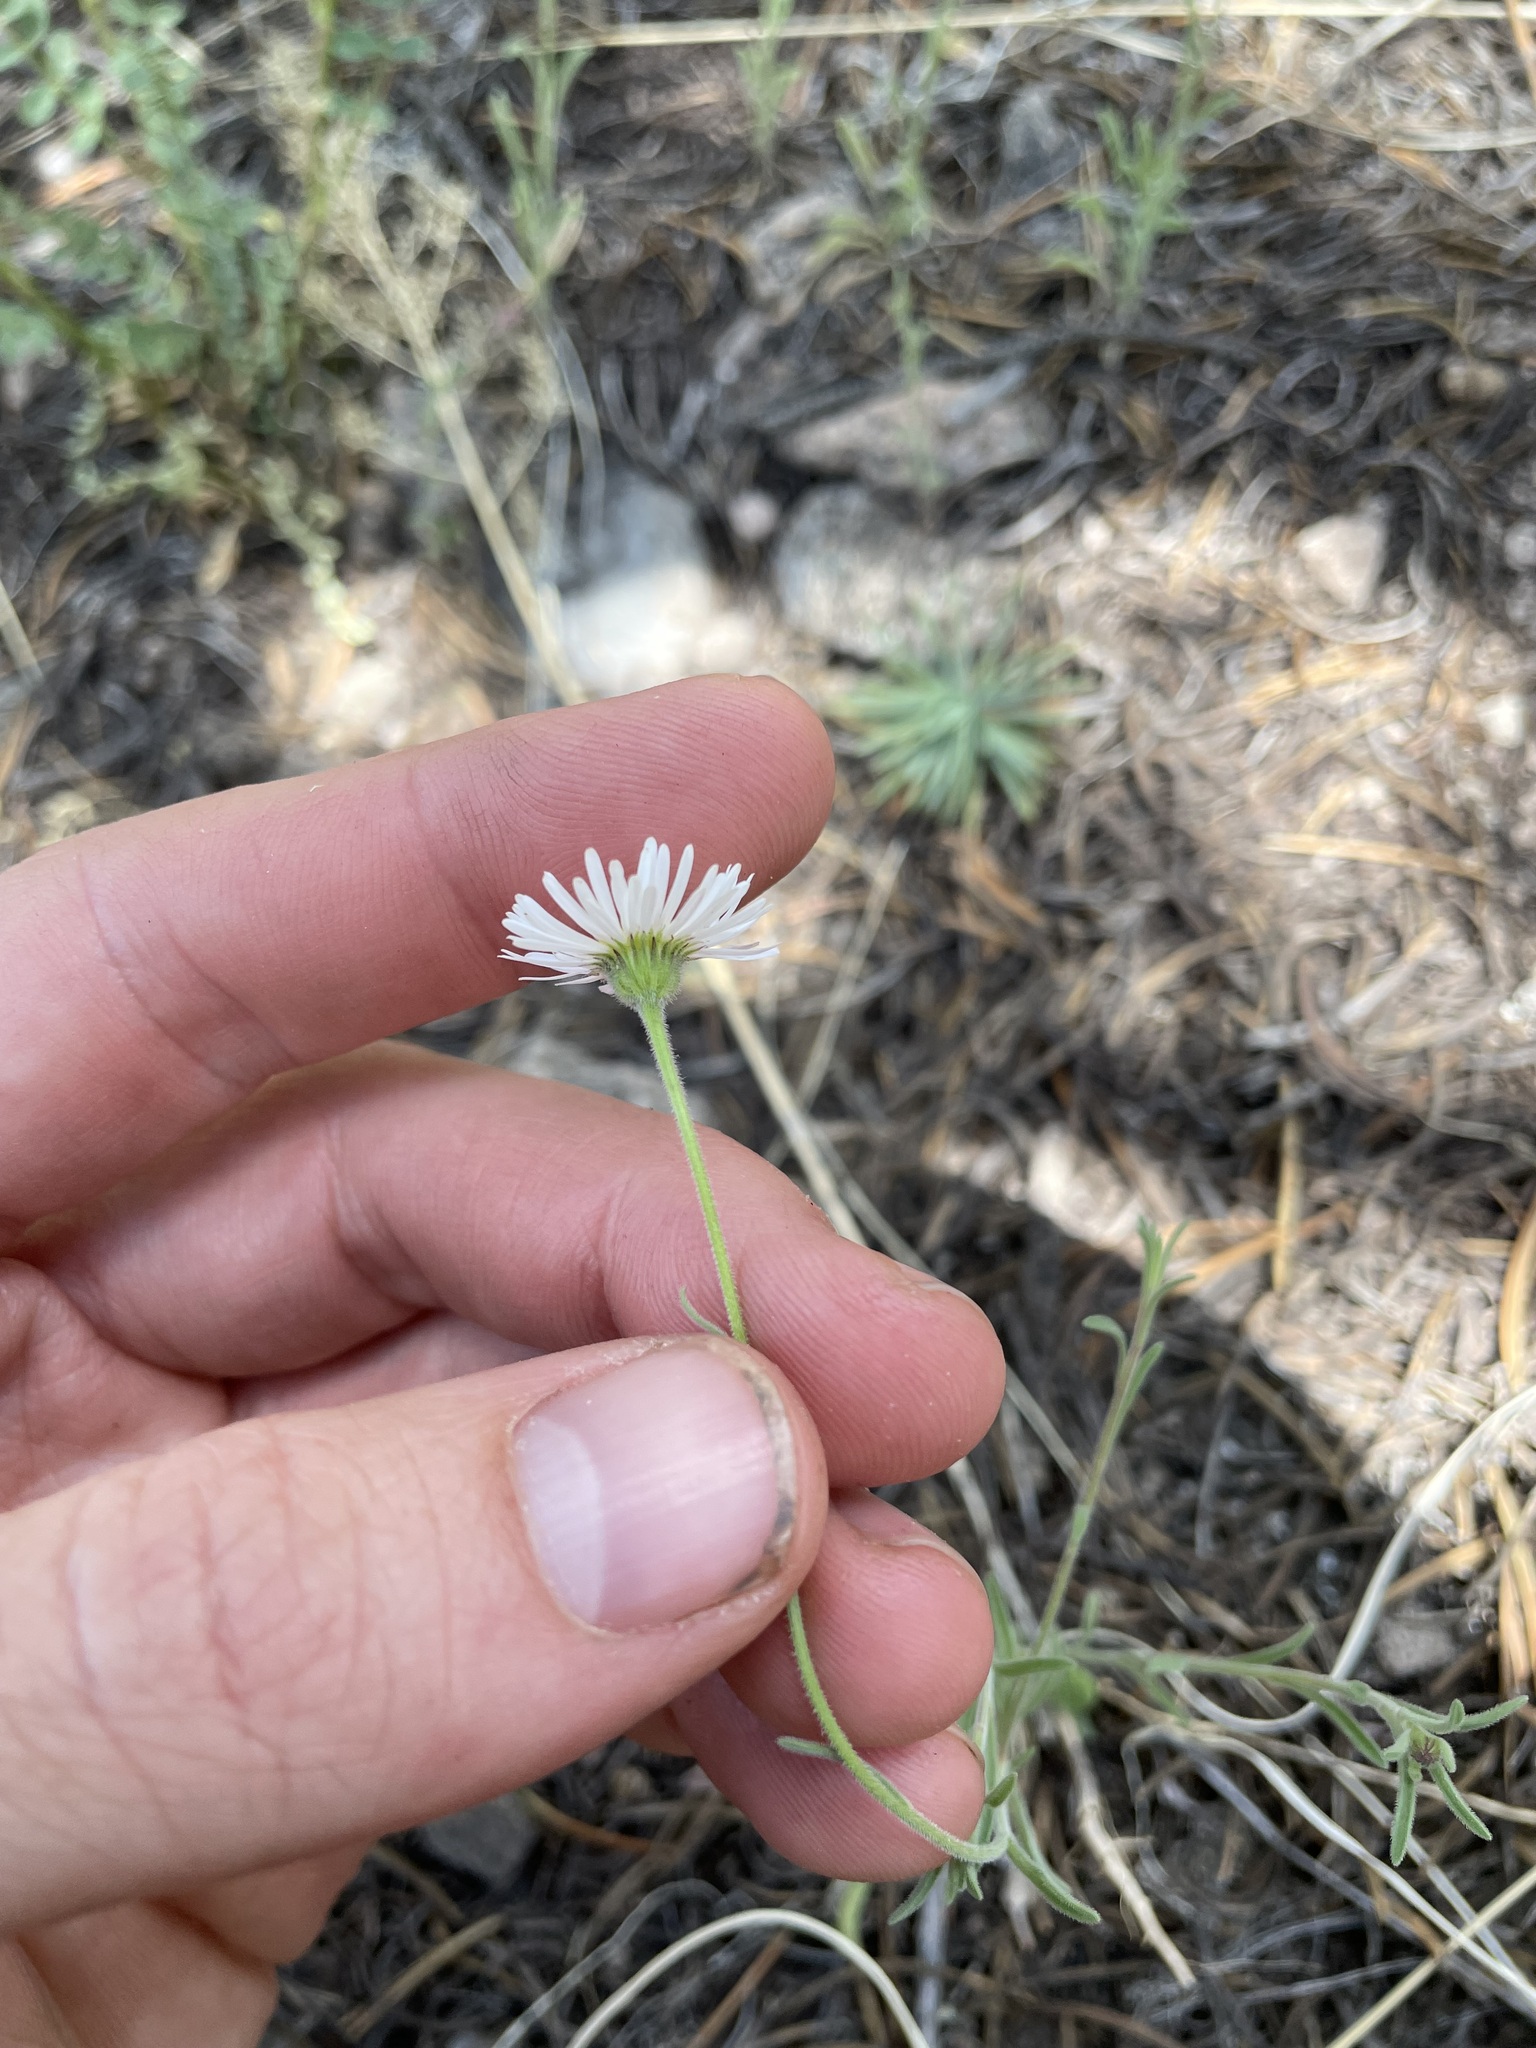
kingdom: Plantae
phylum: Tracheophyta
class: Magnoliopsida
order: Asterales
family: Asteraceae
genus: Erigeron
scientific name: Erigeron tracyi
